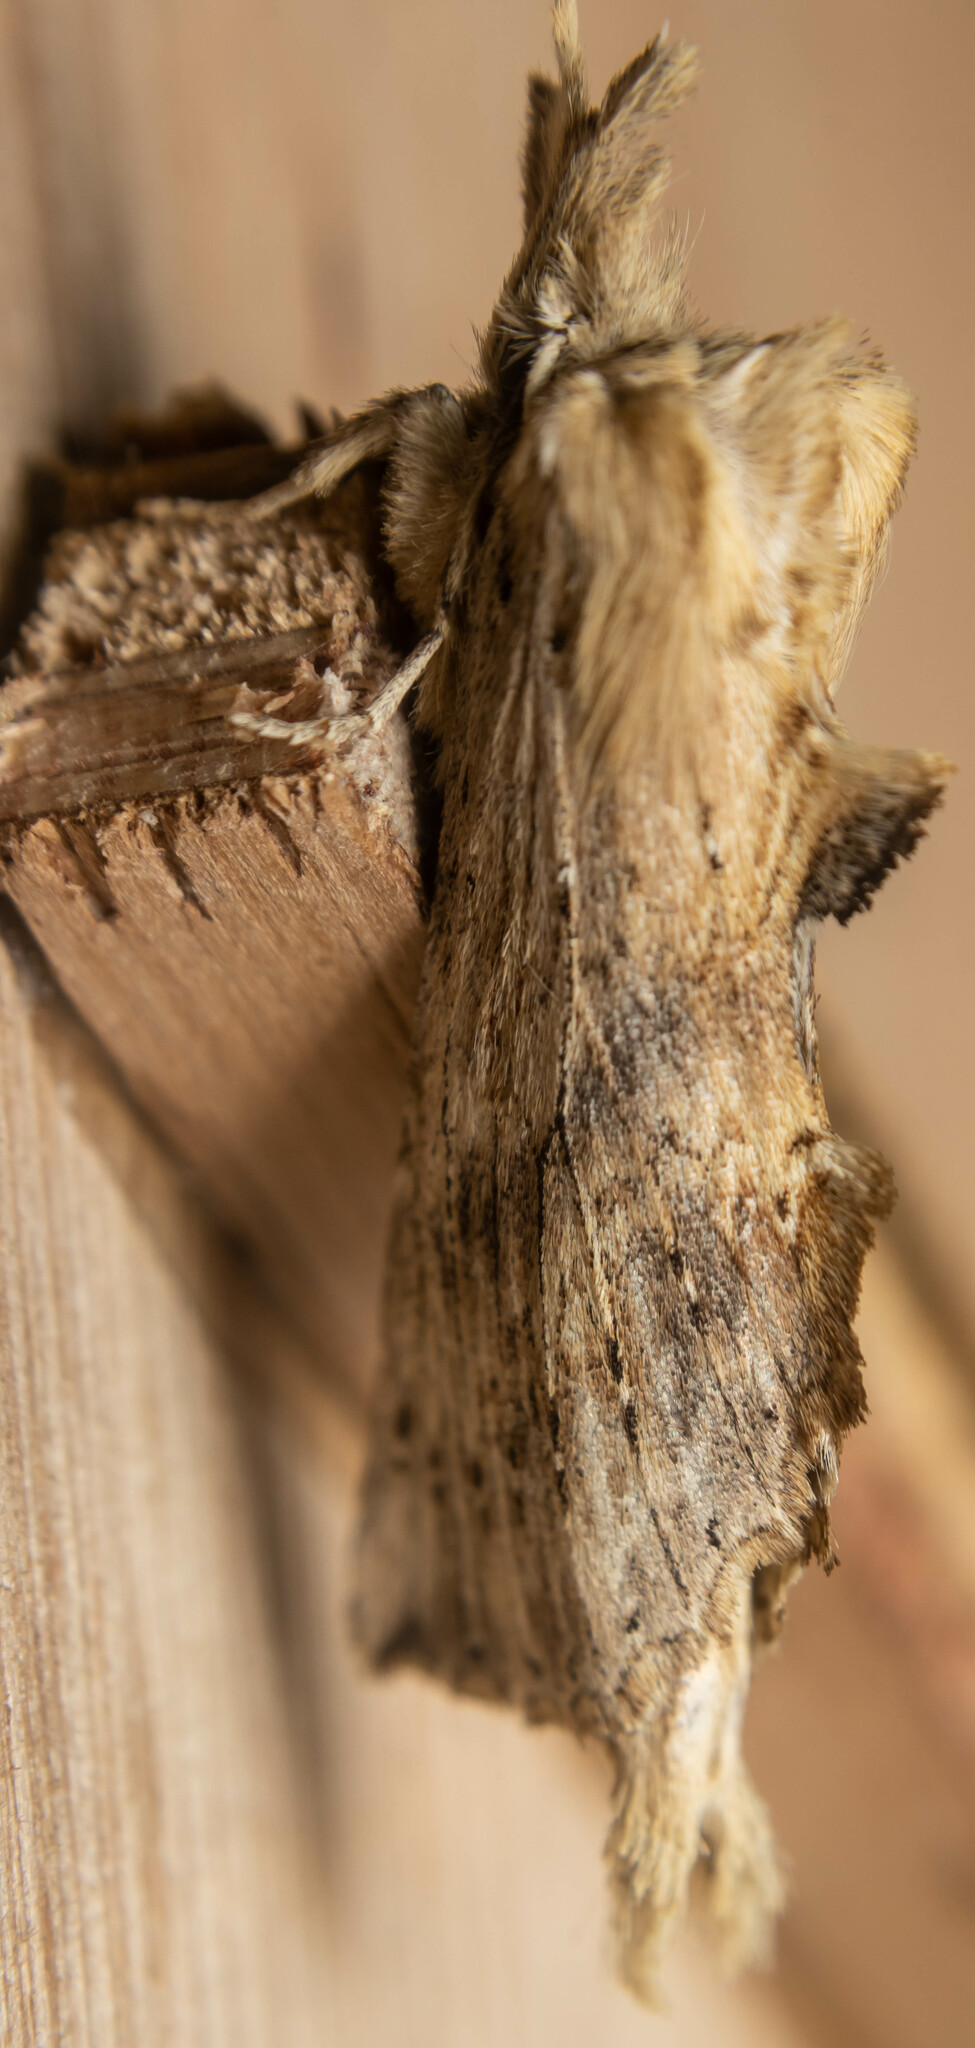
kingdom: Animalia
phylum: Arthropoda
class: Insecta
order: Lepidoptera
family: Notodontidae
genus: Pterostoma
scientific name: Pterostoma palpina
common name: Pale prominent
